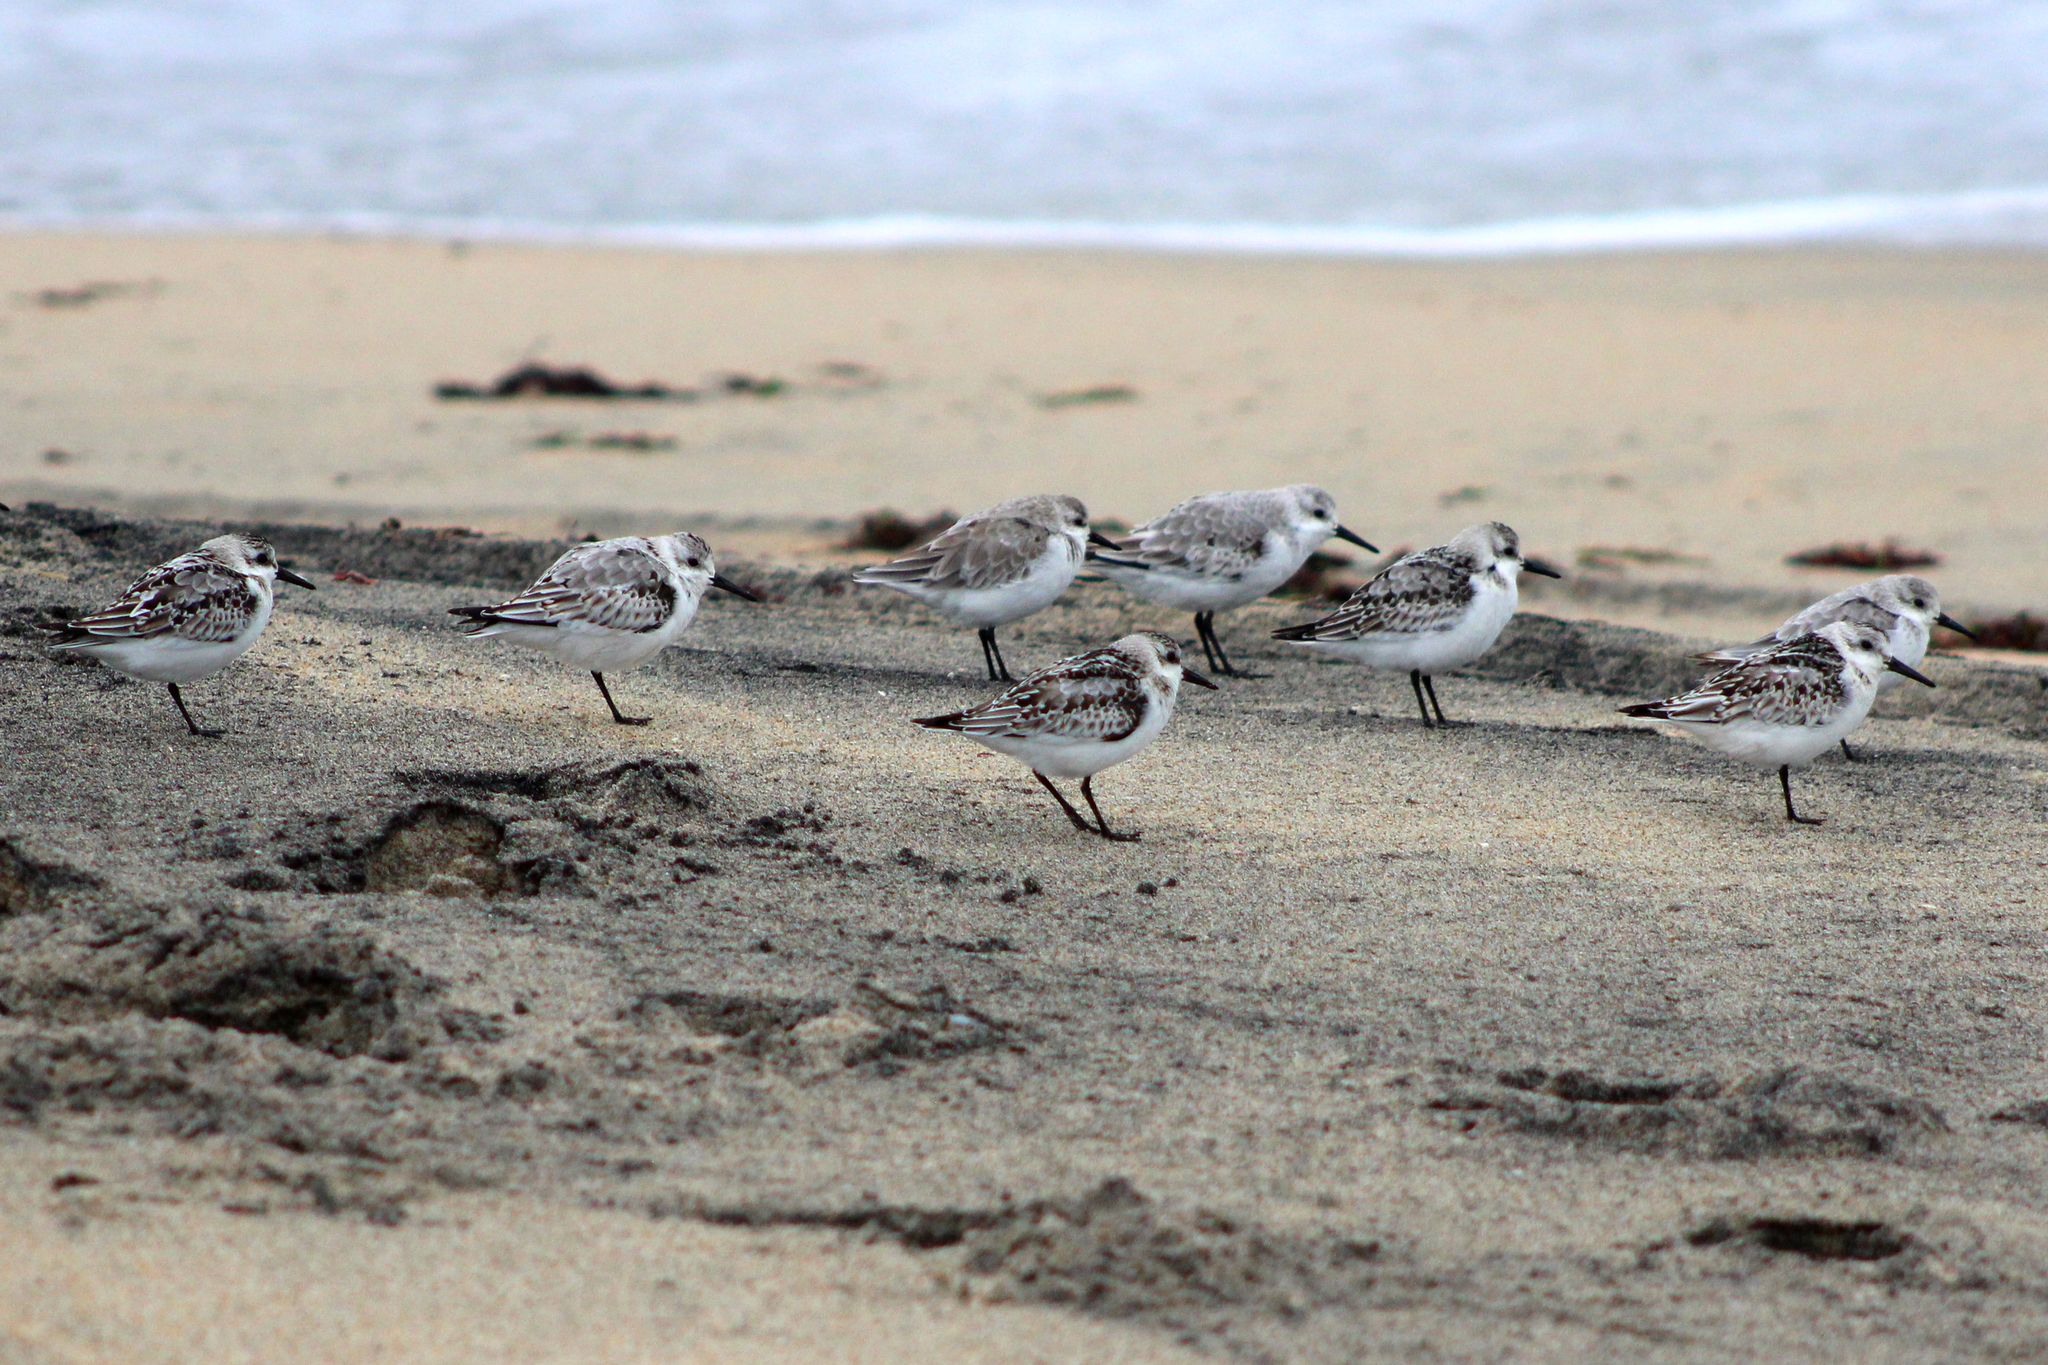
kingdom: Animalia
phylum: Chordata
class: Aves
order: Charadriiformes
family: Scolopacidae
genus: Calidris
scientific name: Calidris alba
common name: Sanderling
